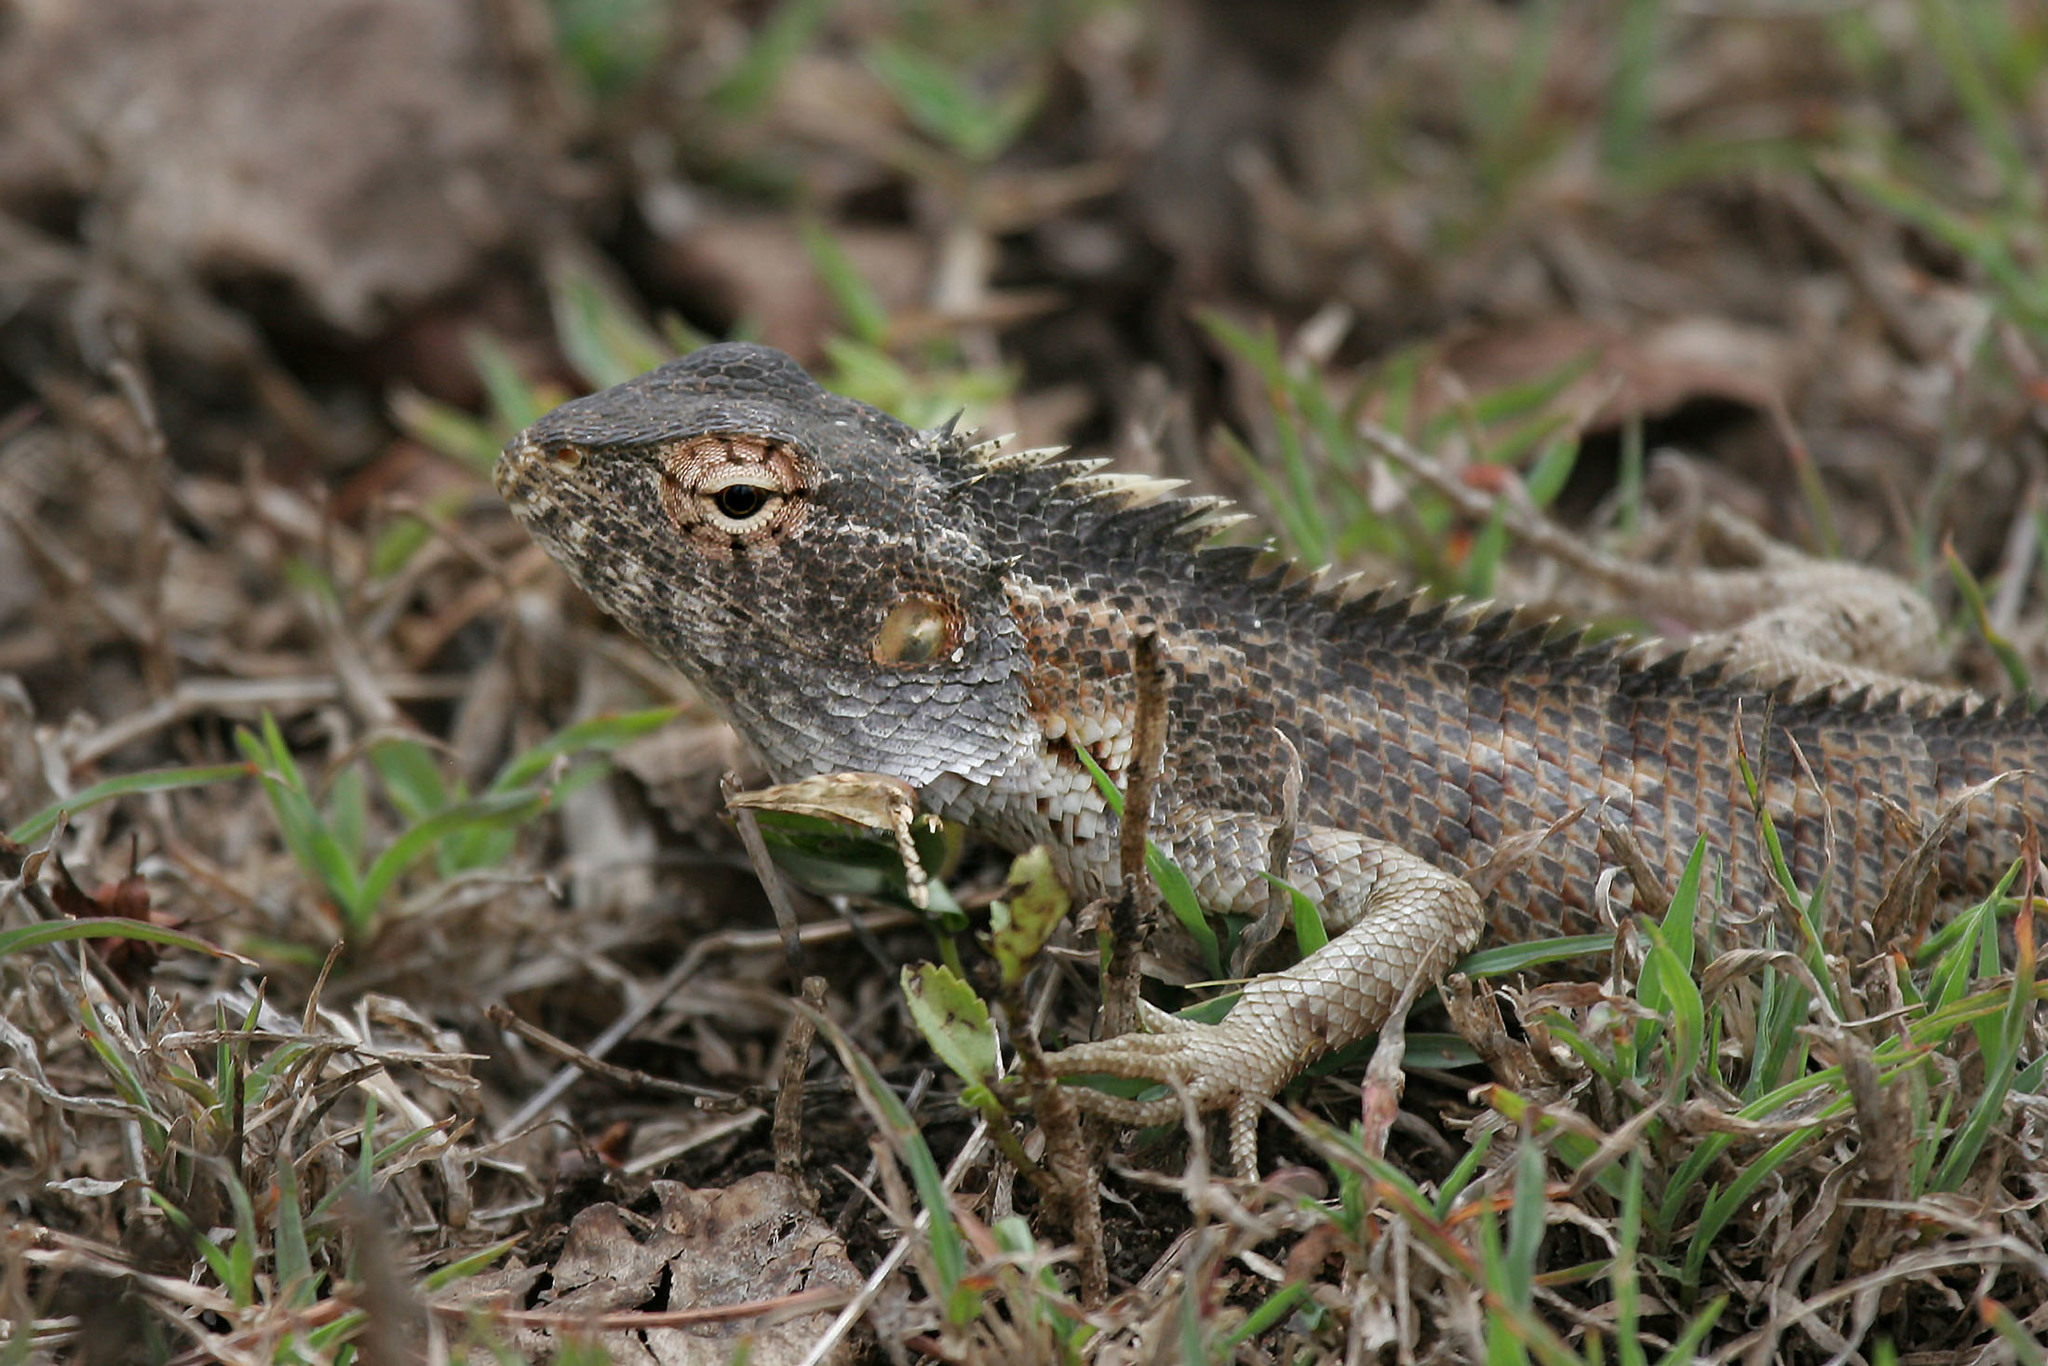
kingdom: Animalia
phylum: Chordata
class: Squamata
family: Agamidae
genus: Calotes
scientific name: Calotes versicolor
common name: Oriental garden lizard
